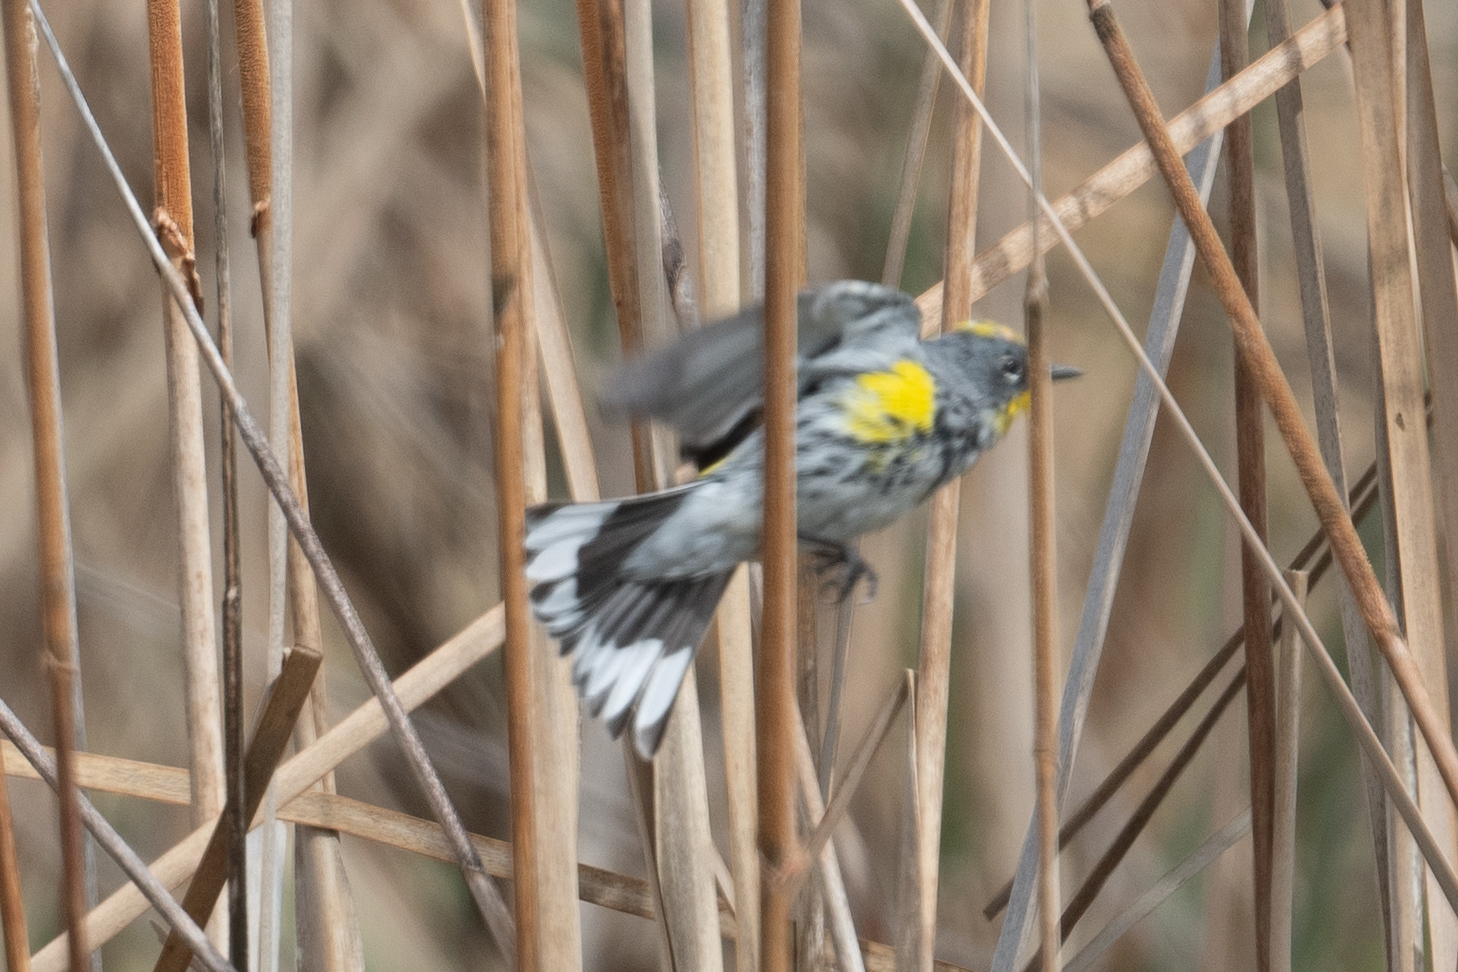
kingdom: Animalia
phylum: Chordata
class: Aves
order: Passeriformes
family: Parulidae
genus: Setophaga
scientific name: Setophaga coronata
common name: Myrtle warbler
